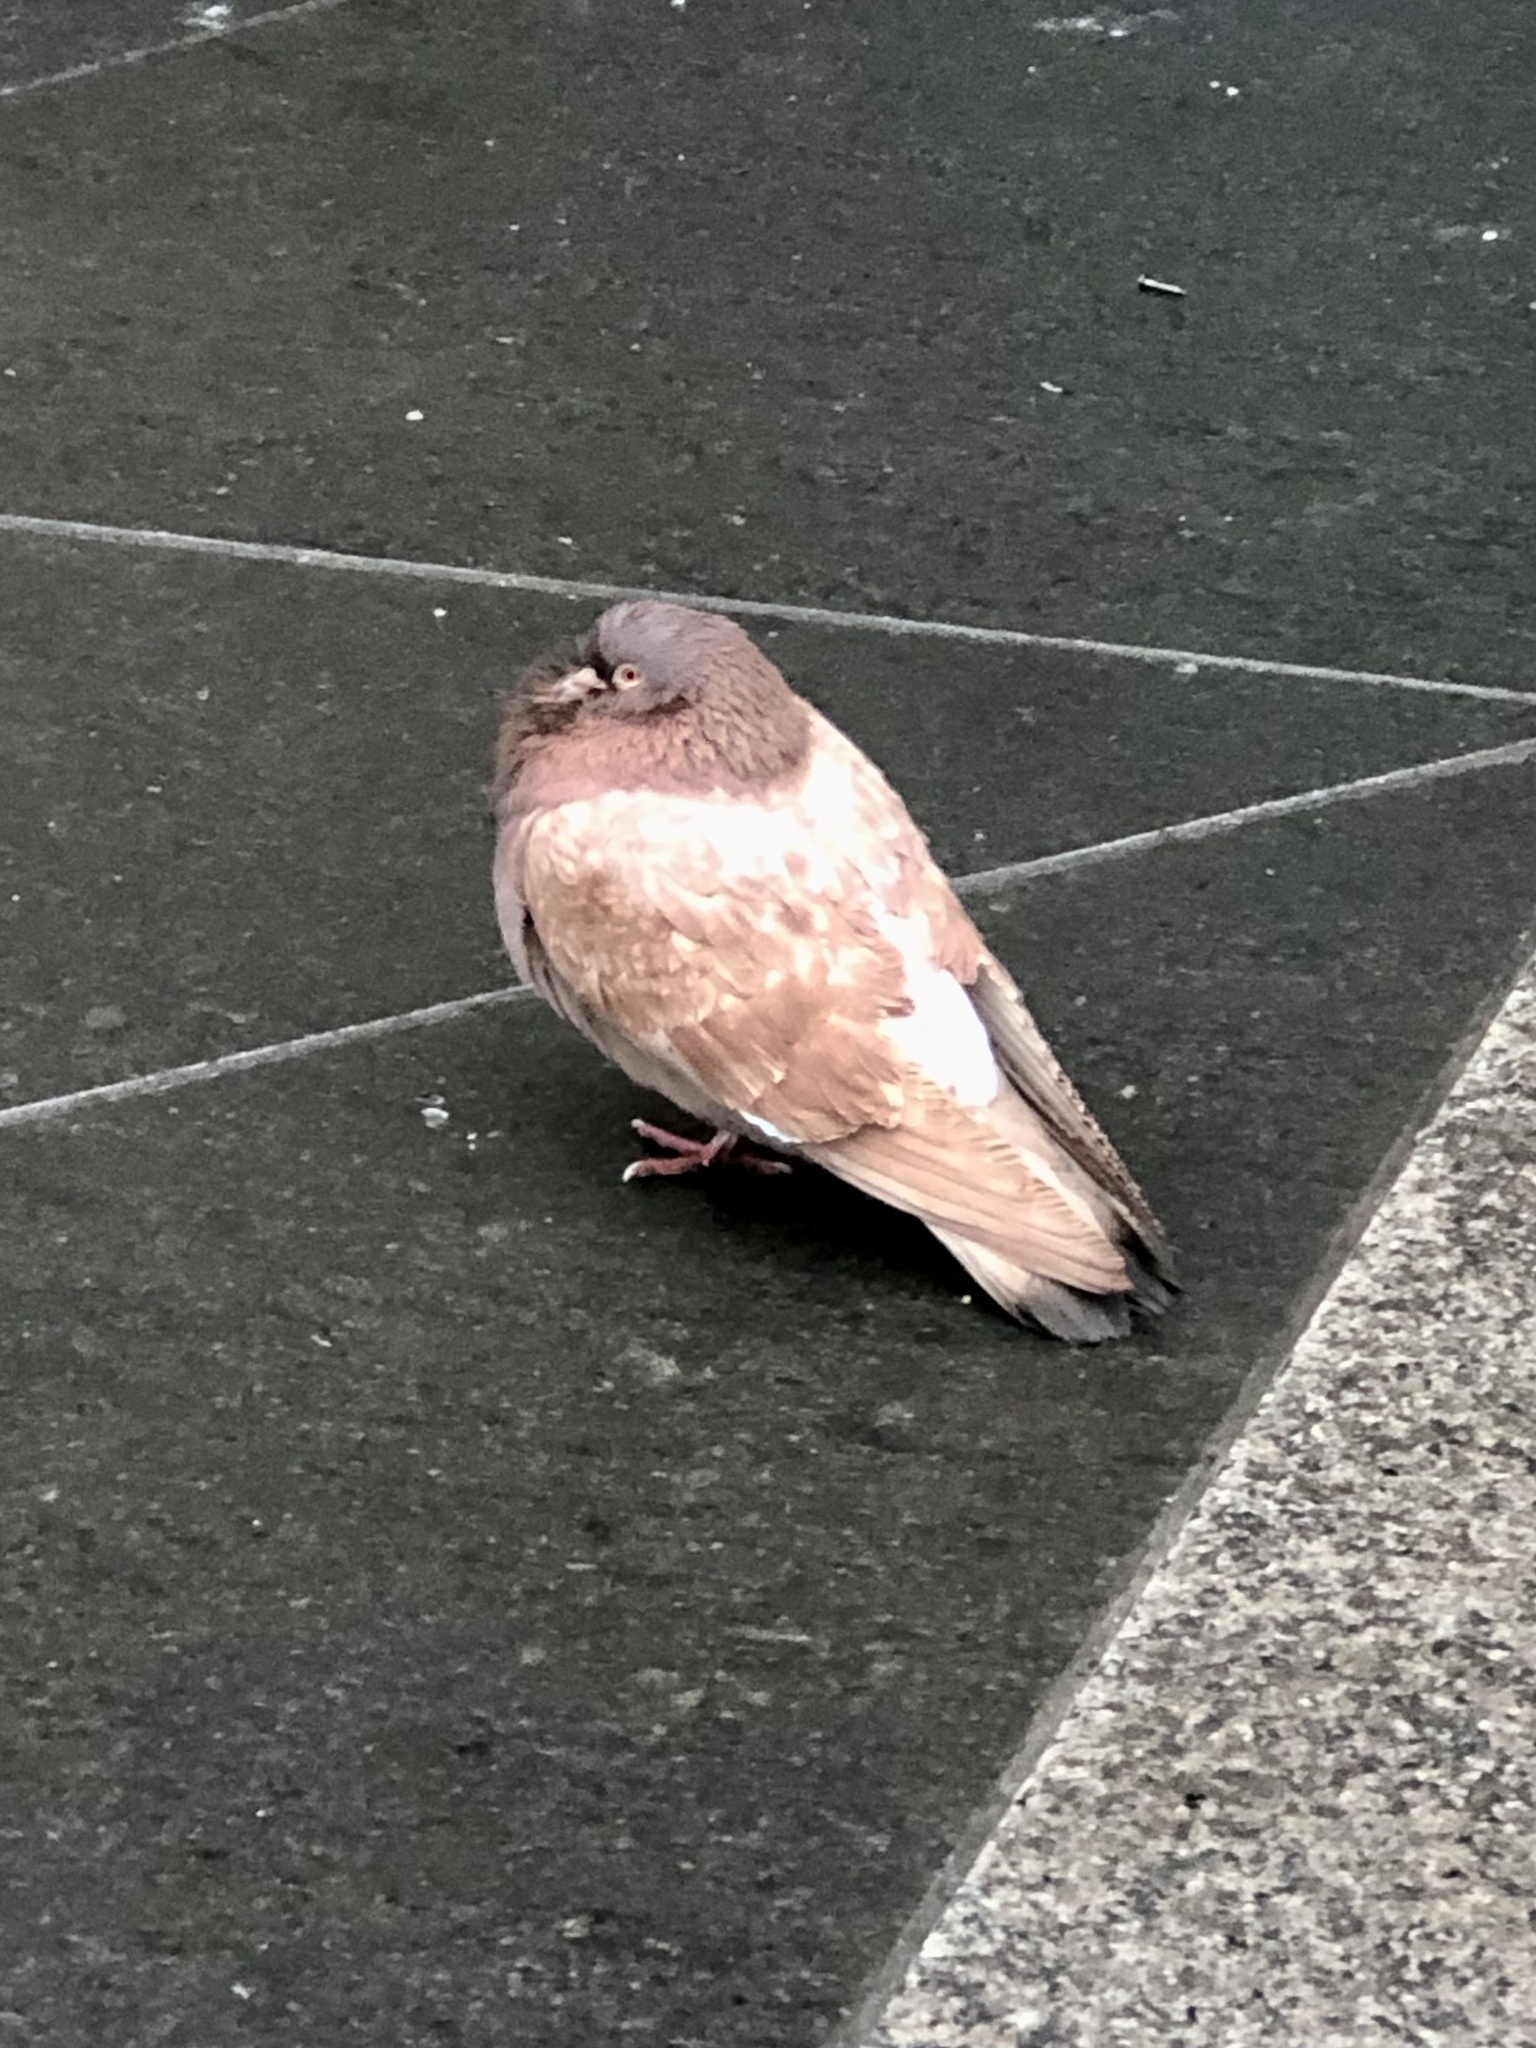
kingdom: Animalia
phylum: Chordata
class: Aves
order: Columbiformes
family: Columbidae
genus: Columba
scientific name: Columba livia
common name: Rock pigeon
